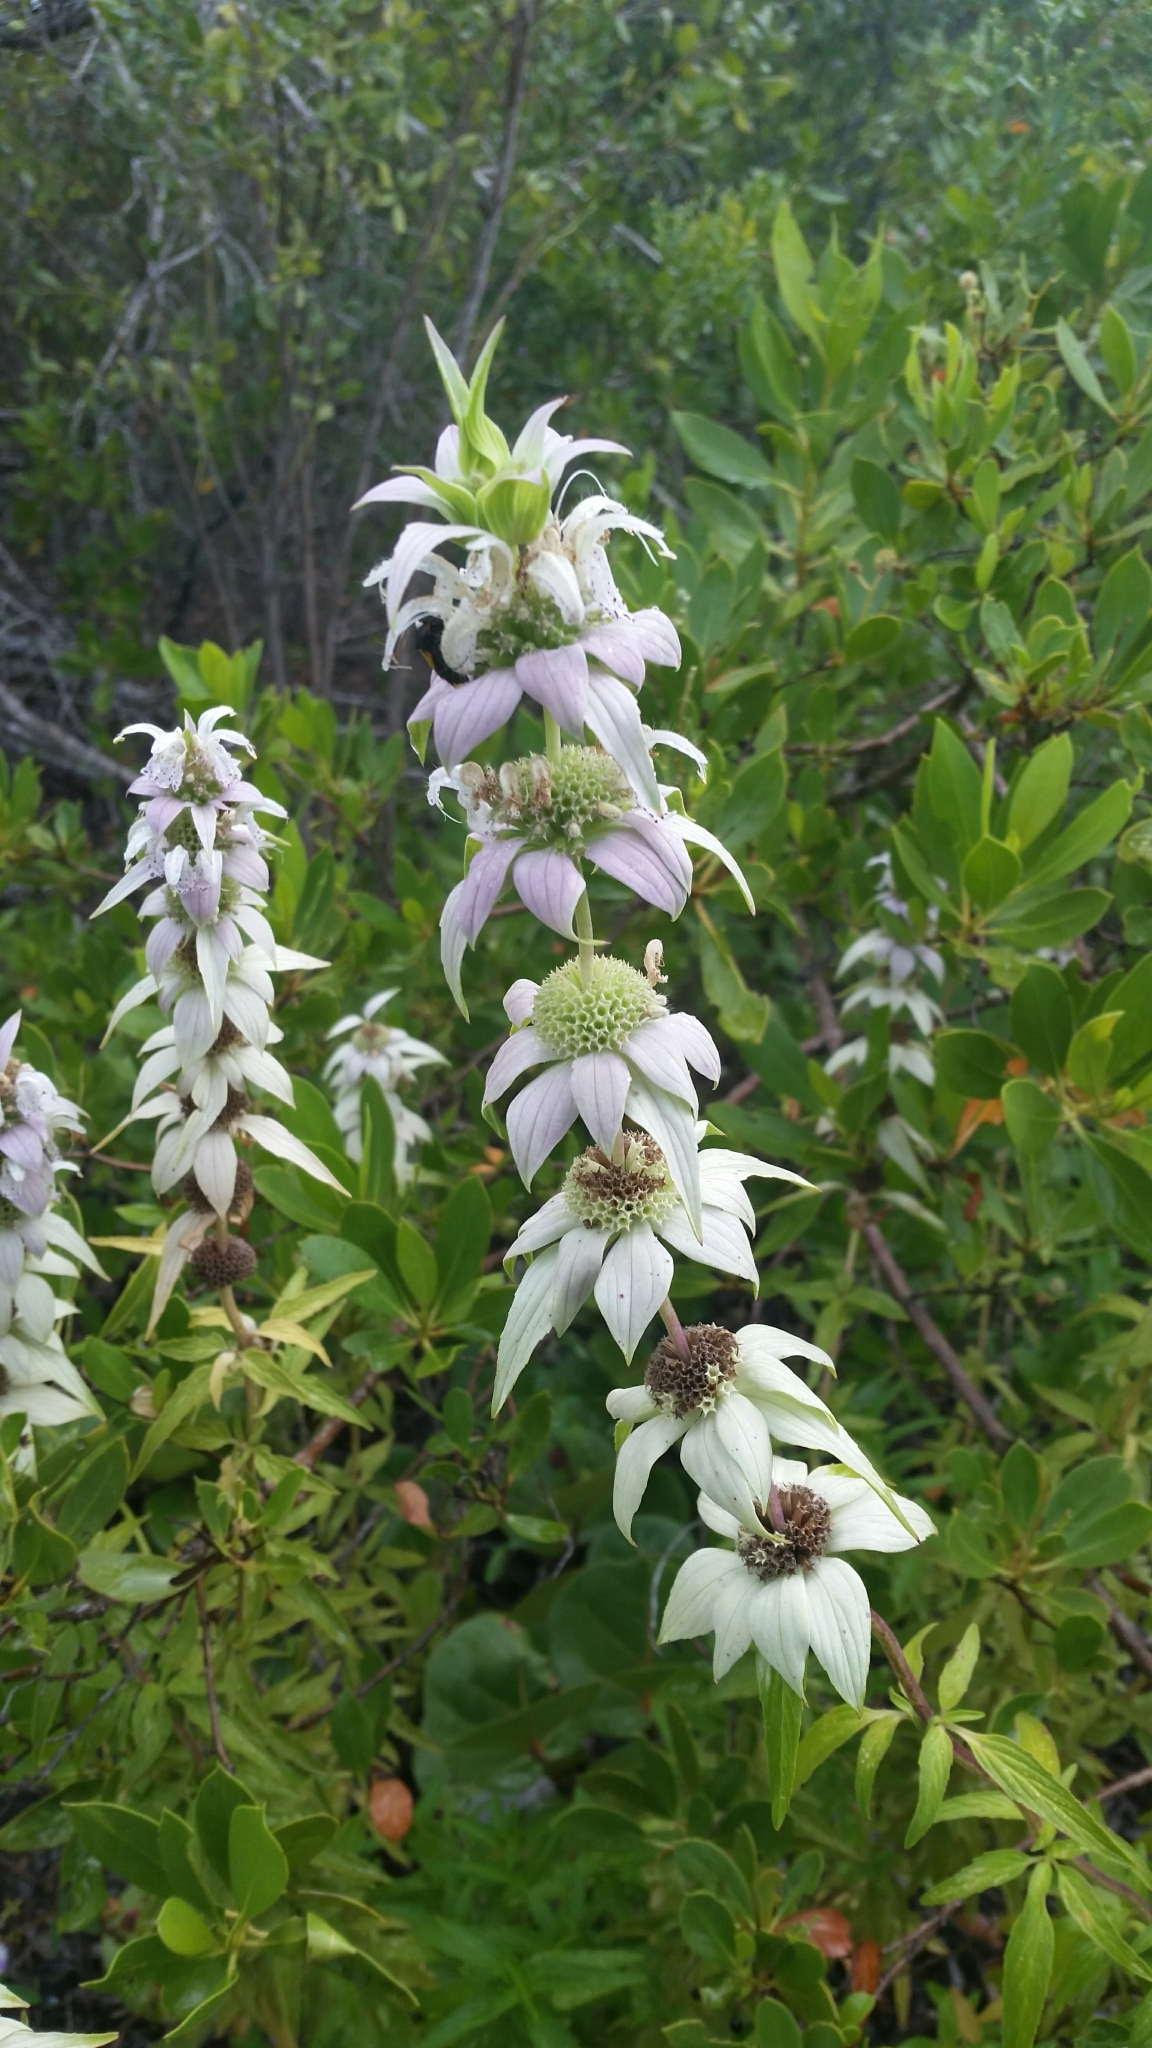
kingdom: Plantae
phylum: Tracheophyta
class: Magnoliopsida
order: Lamiales
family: Lamiaceae
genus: Monarda
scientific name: Monarda punctata
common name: Dotted monarda
